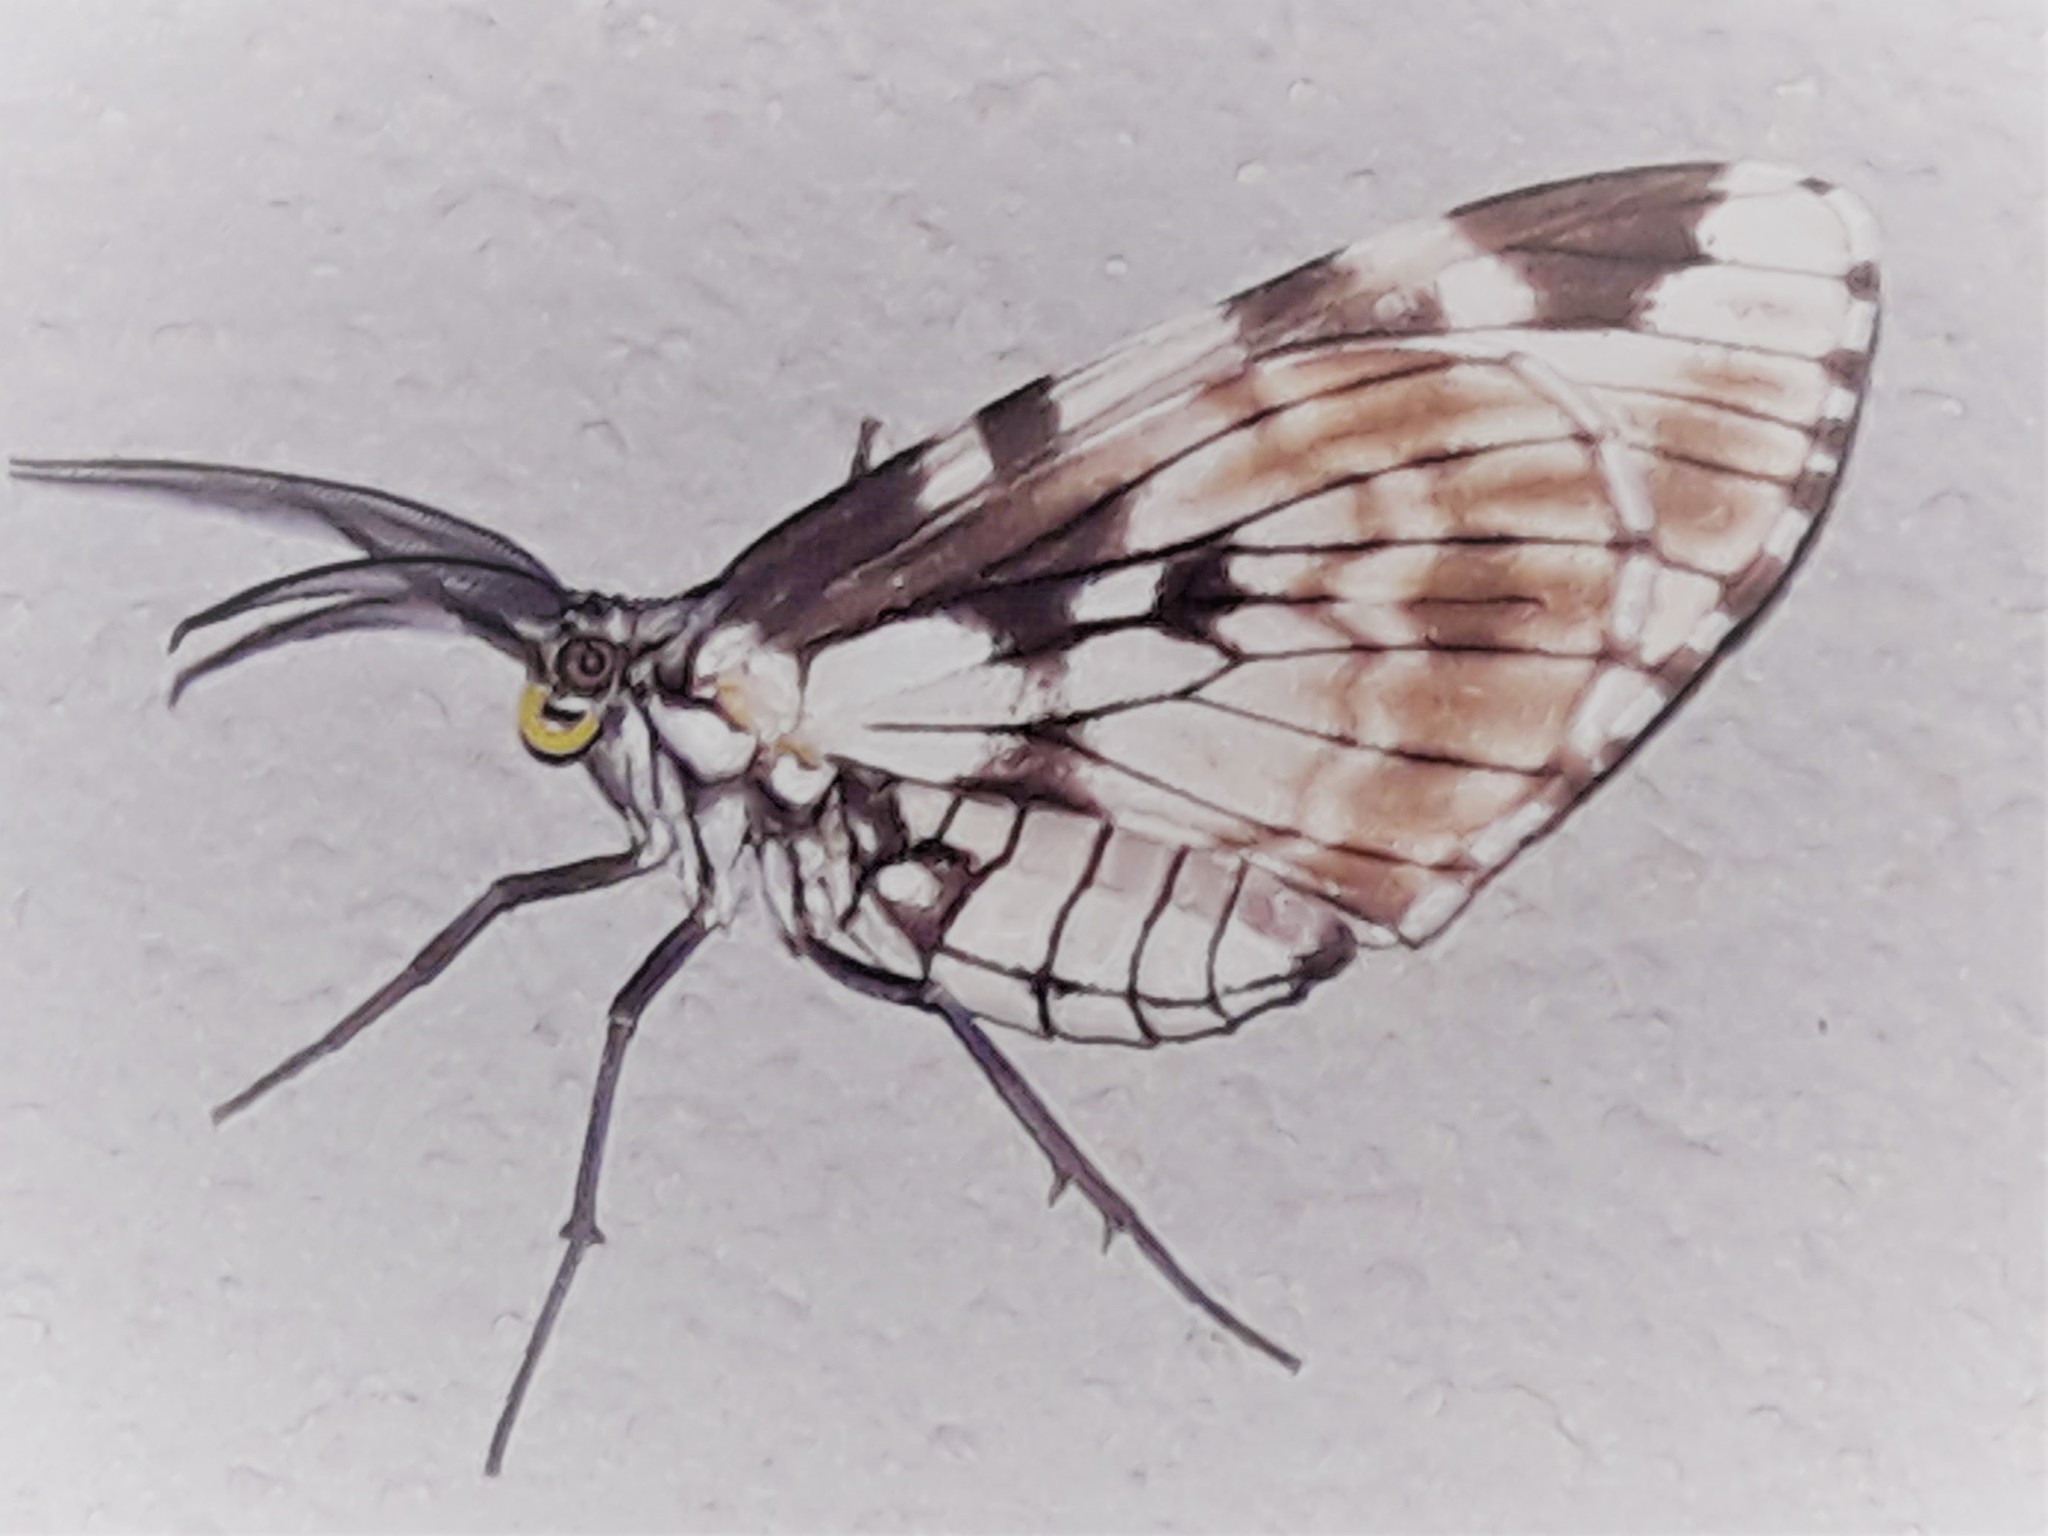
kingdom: Animalia
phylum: Arthropoda
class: Insecta
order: Lepidoptera
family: Geometridae
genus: Nephodia
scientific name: Nephodia organa
